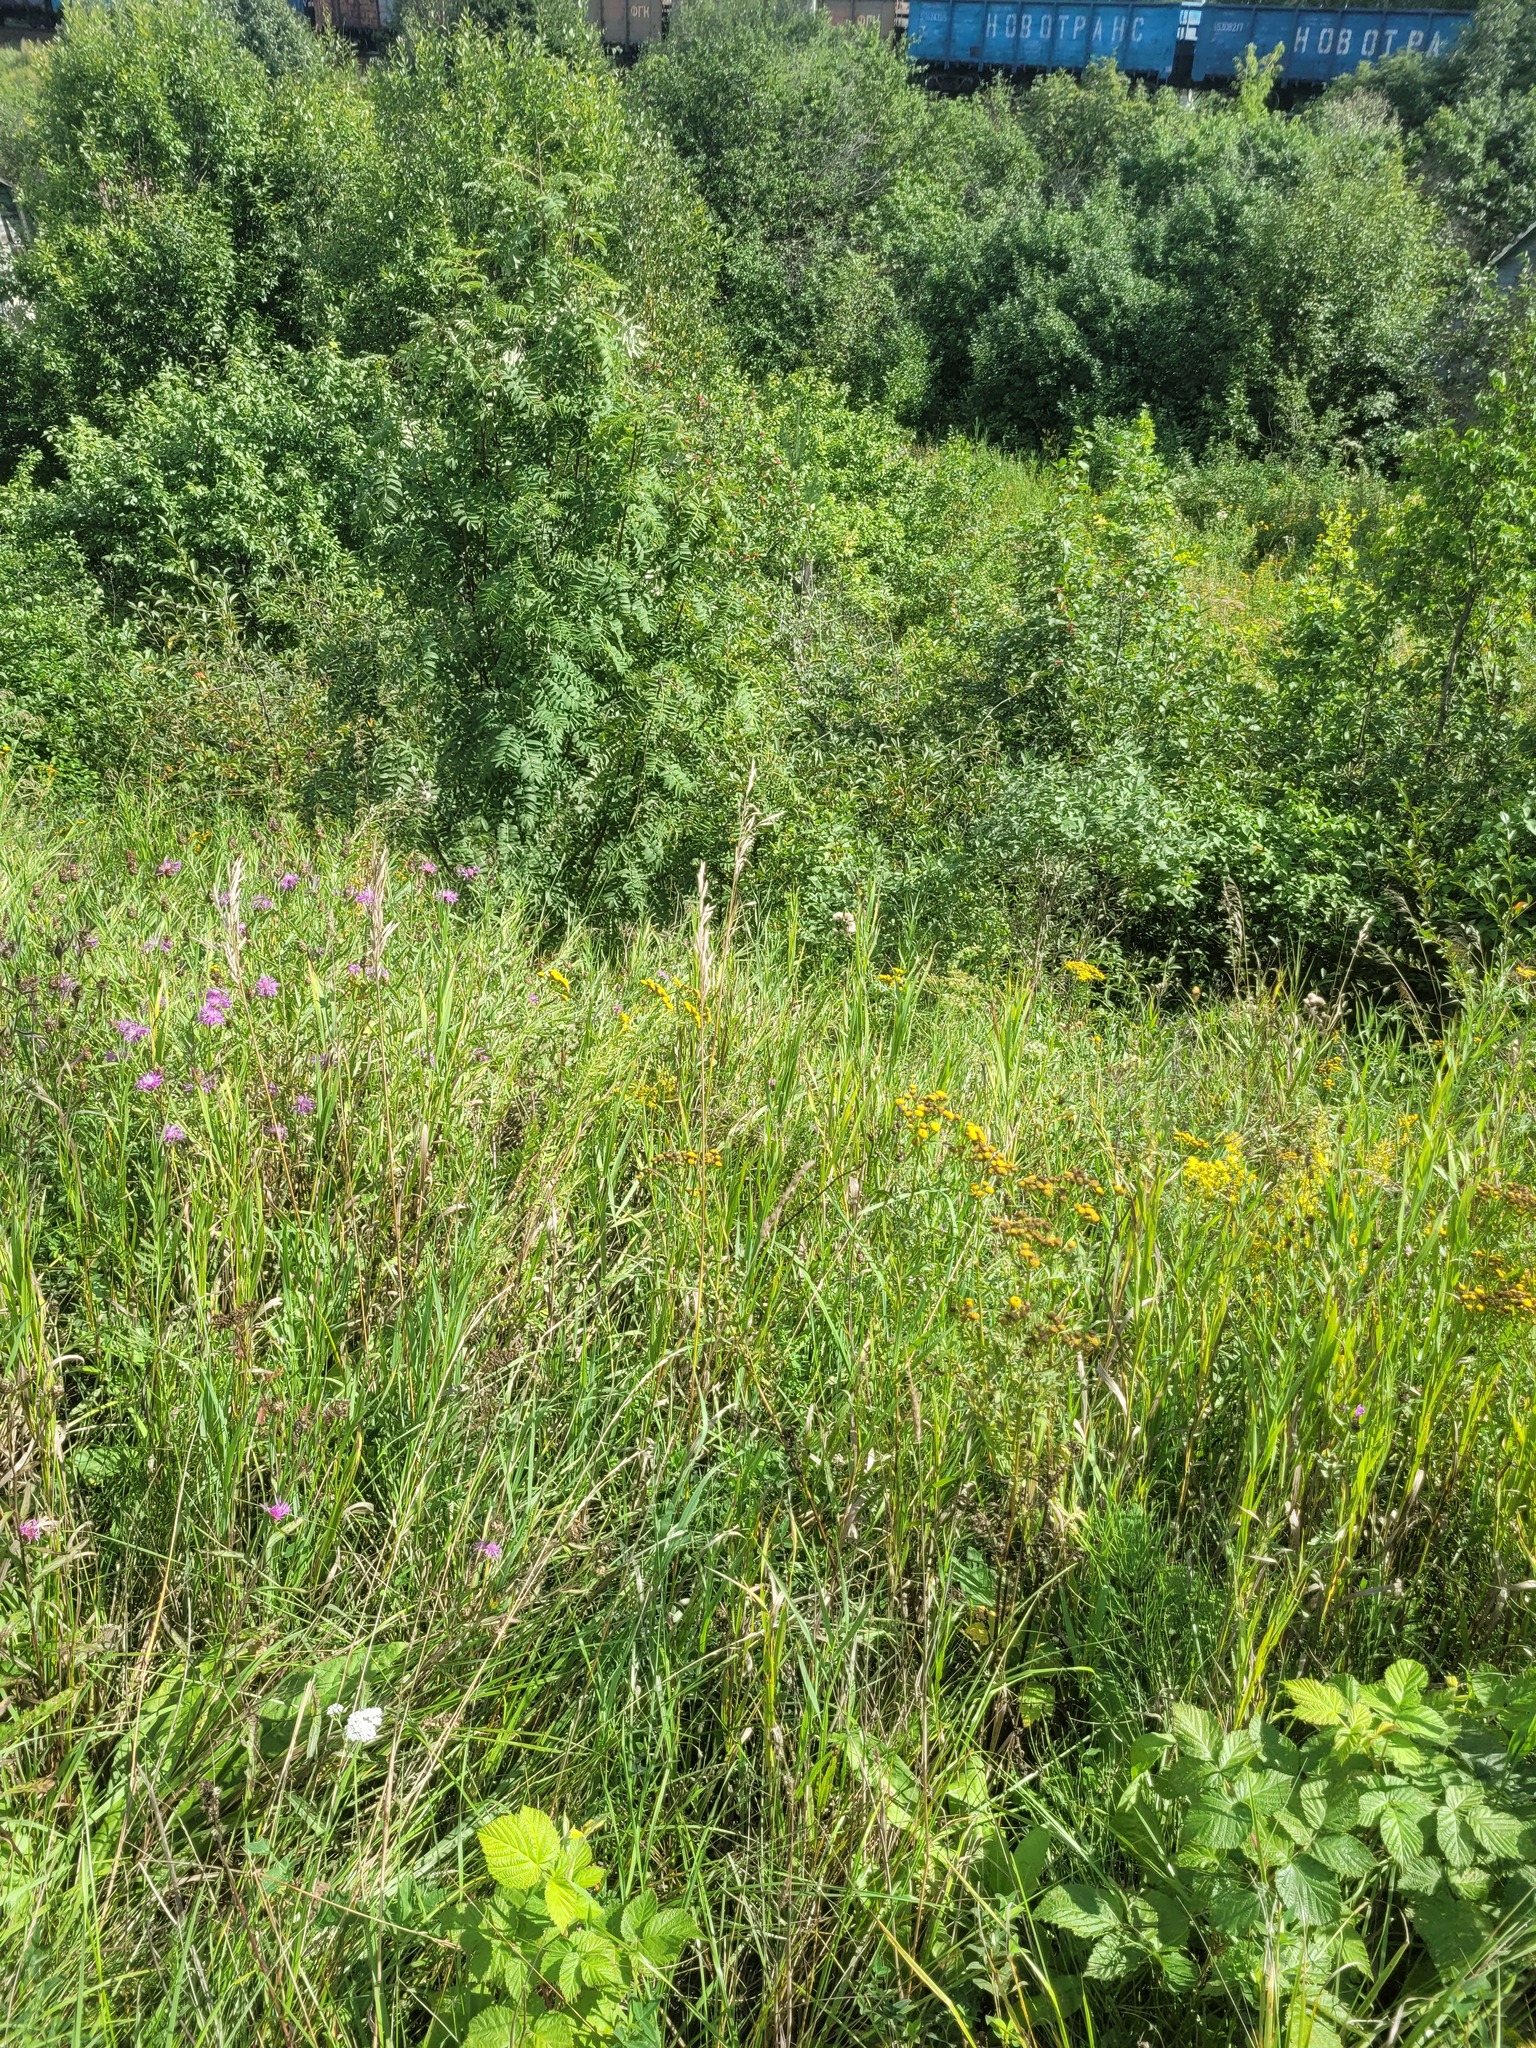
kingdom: Plantae
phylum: Tracheophyta
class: Liliopsida
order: Poales
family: Poaceae
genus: Bromus
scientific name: Bromus inermis
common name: Smooth brome
